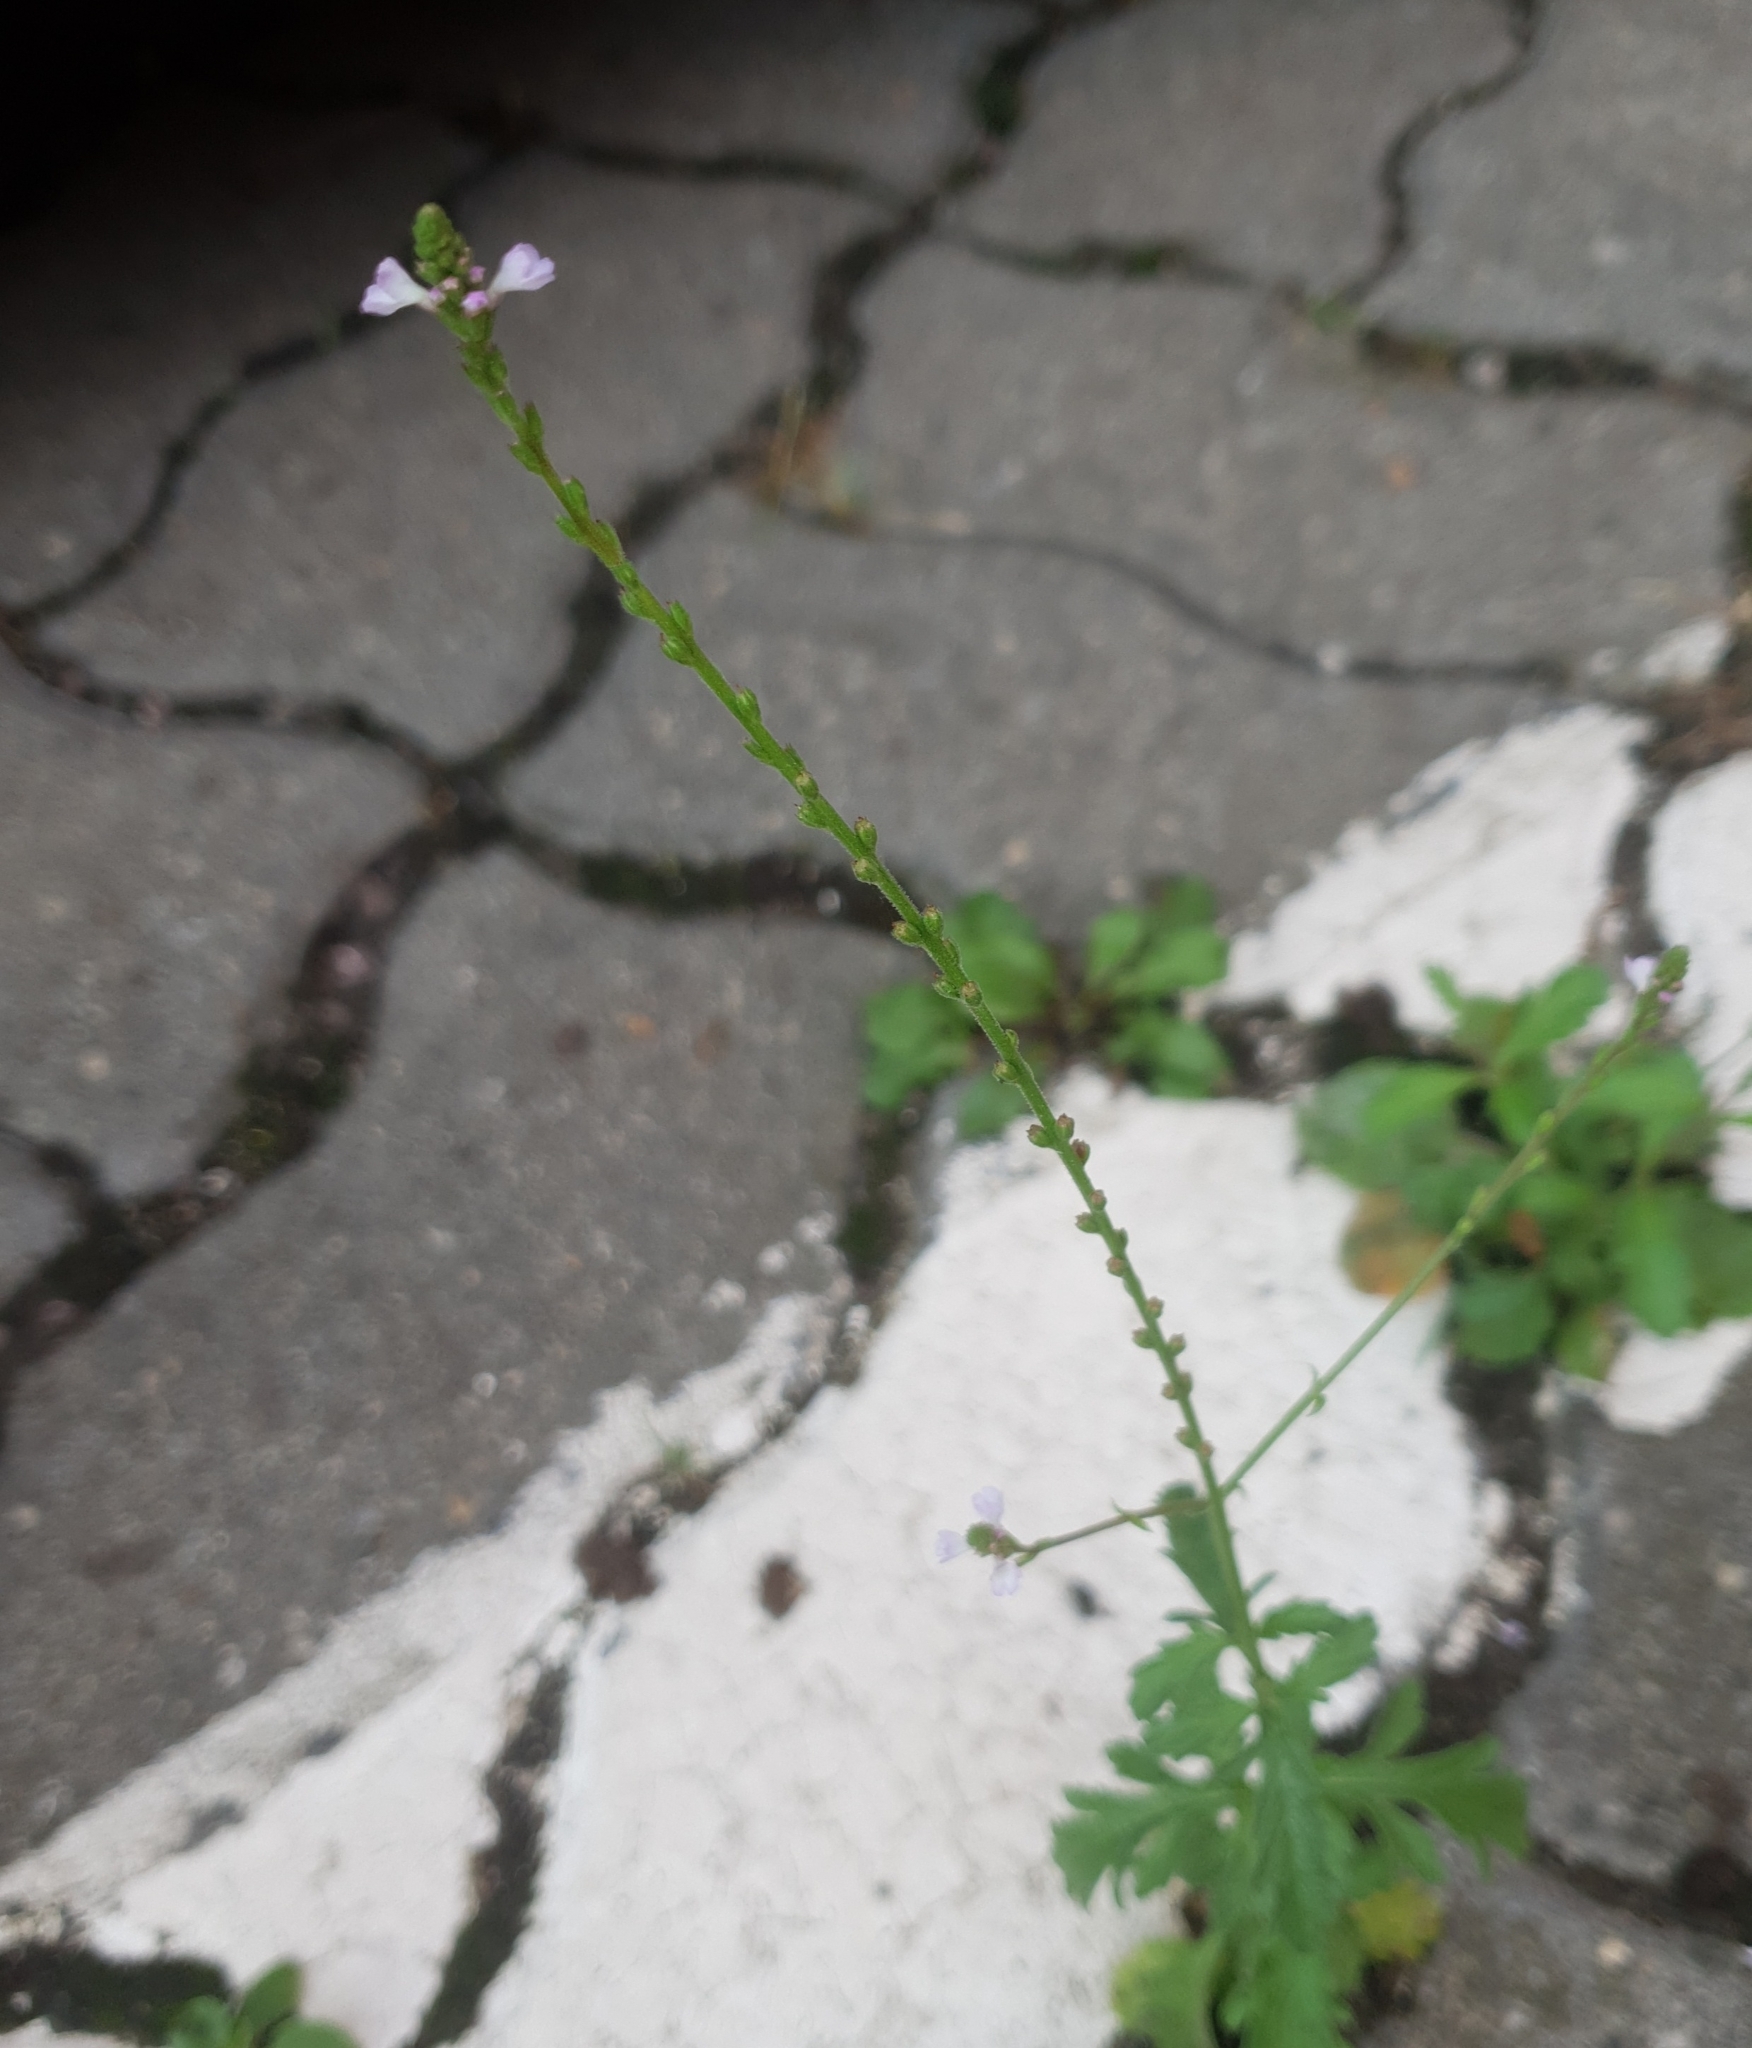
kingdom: Plantae
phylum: Tracheophyta
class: Magnoliopsida
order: Lamiales
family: Verbenaceae
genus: Verbena
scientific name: Verbena officinalis
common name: Vervain
